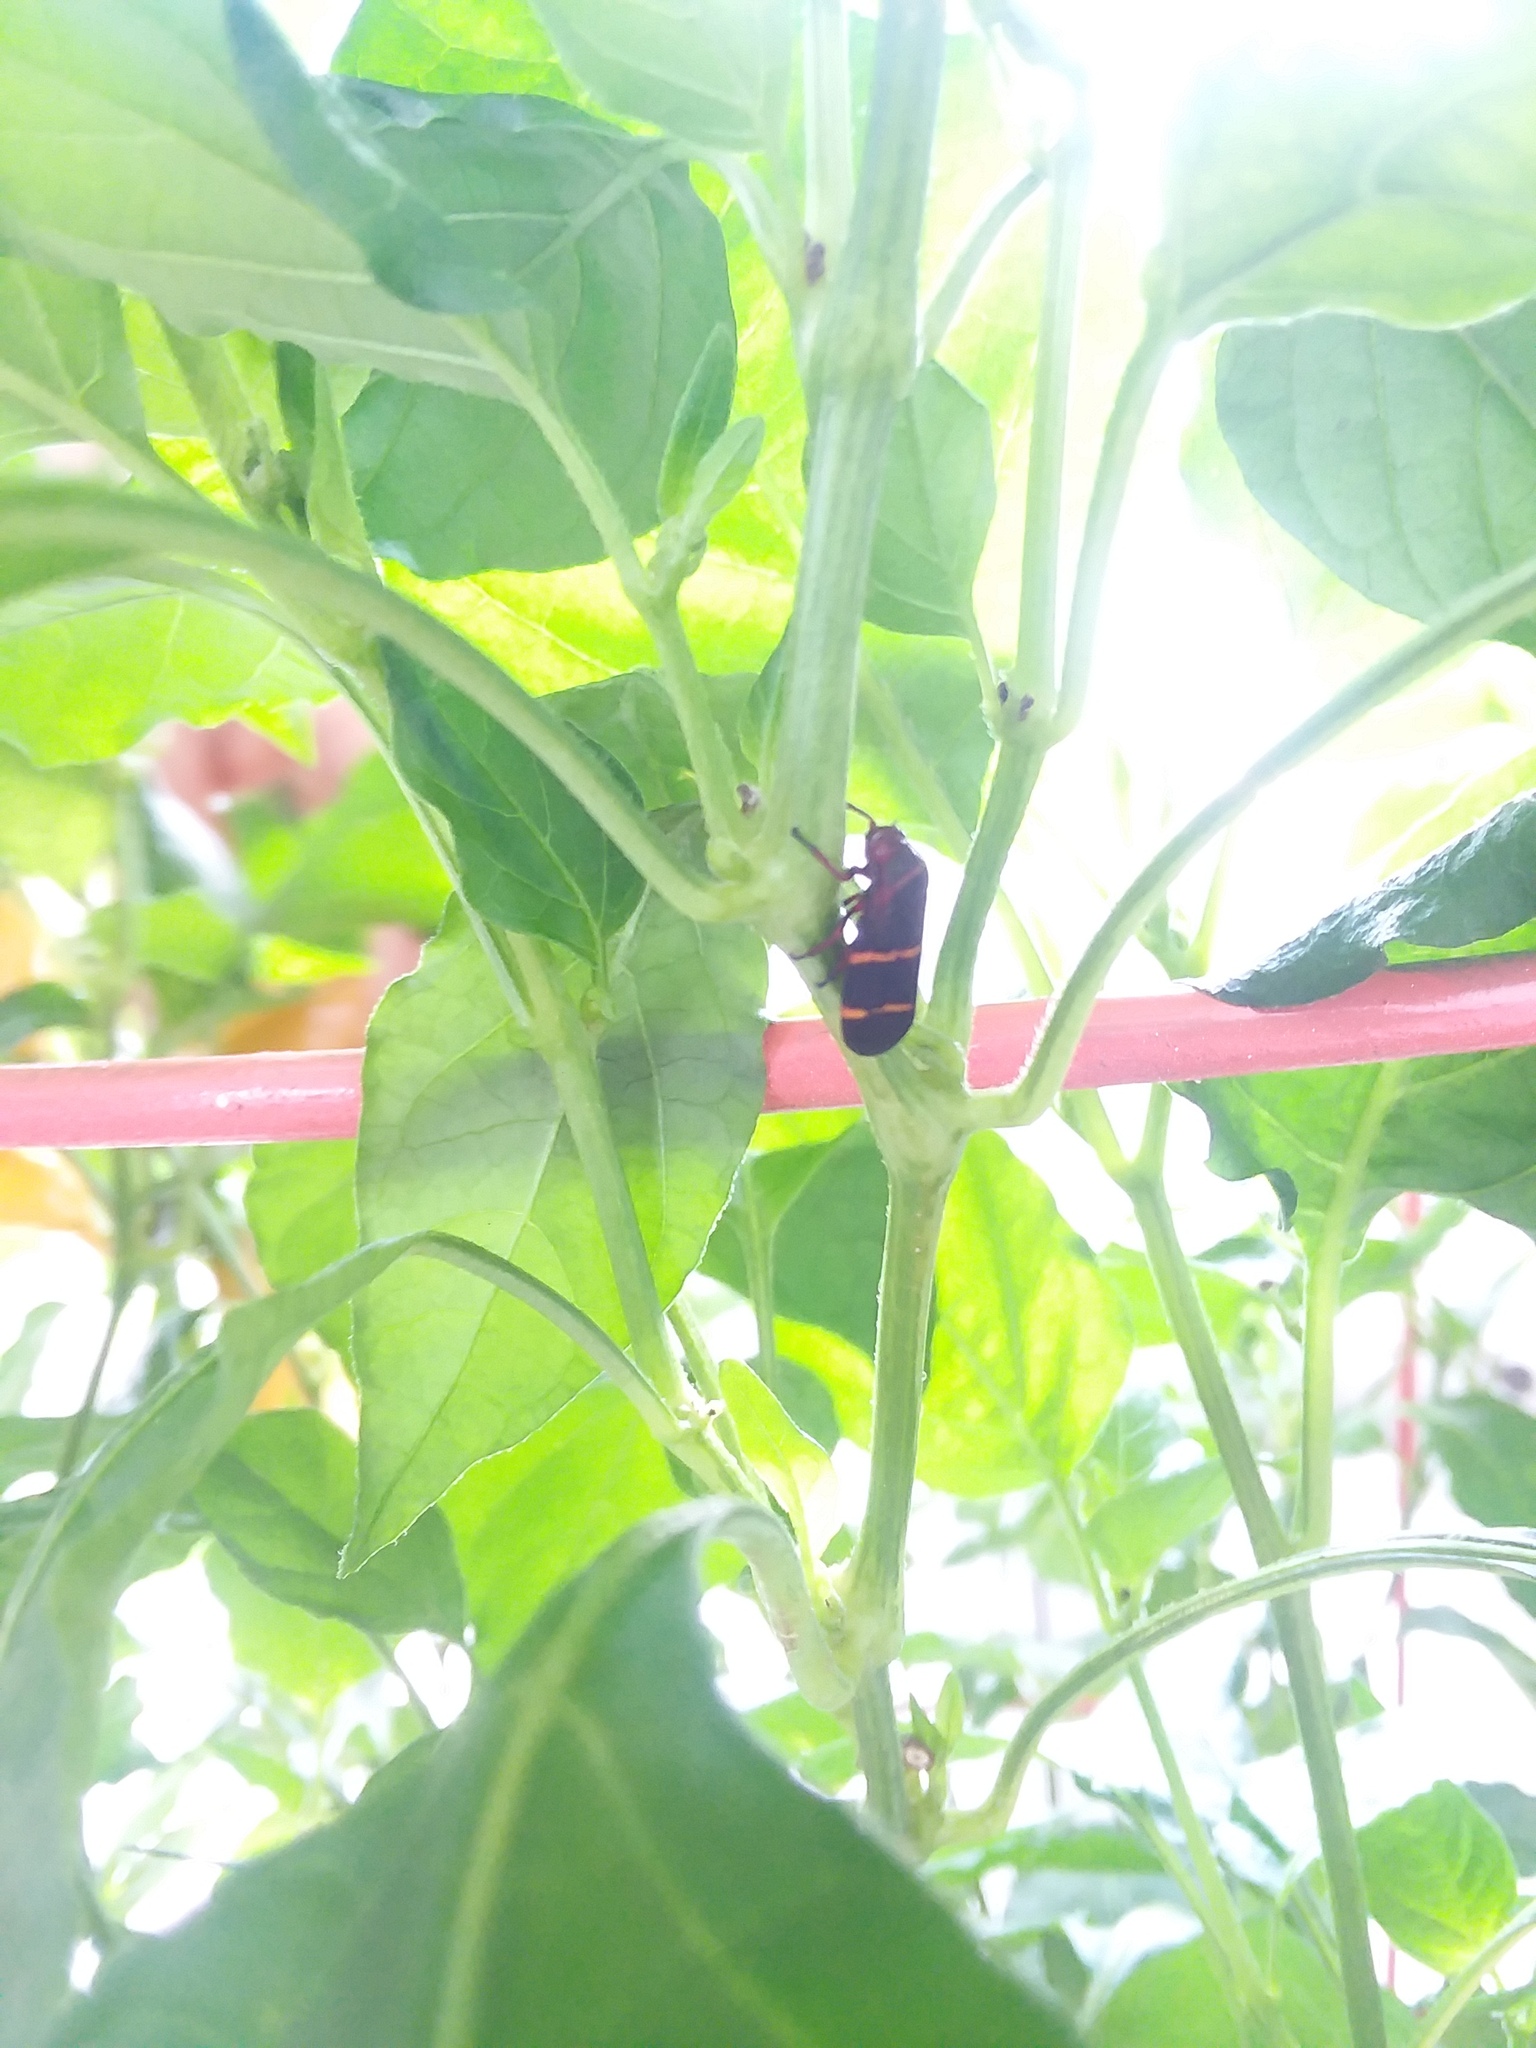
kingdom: Animalia
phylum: Arthropoda
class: Insecta
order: Hemiptera
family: Cercopidae
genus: Prosapia
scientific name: Prosapia bicincta
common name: Twolined spittlebug
